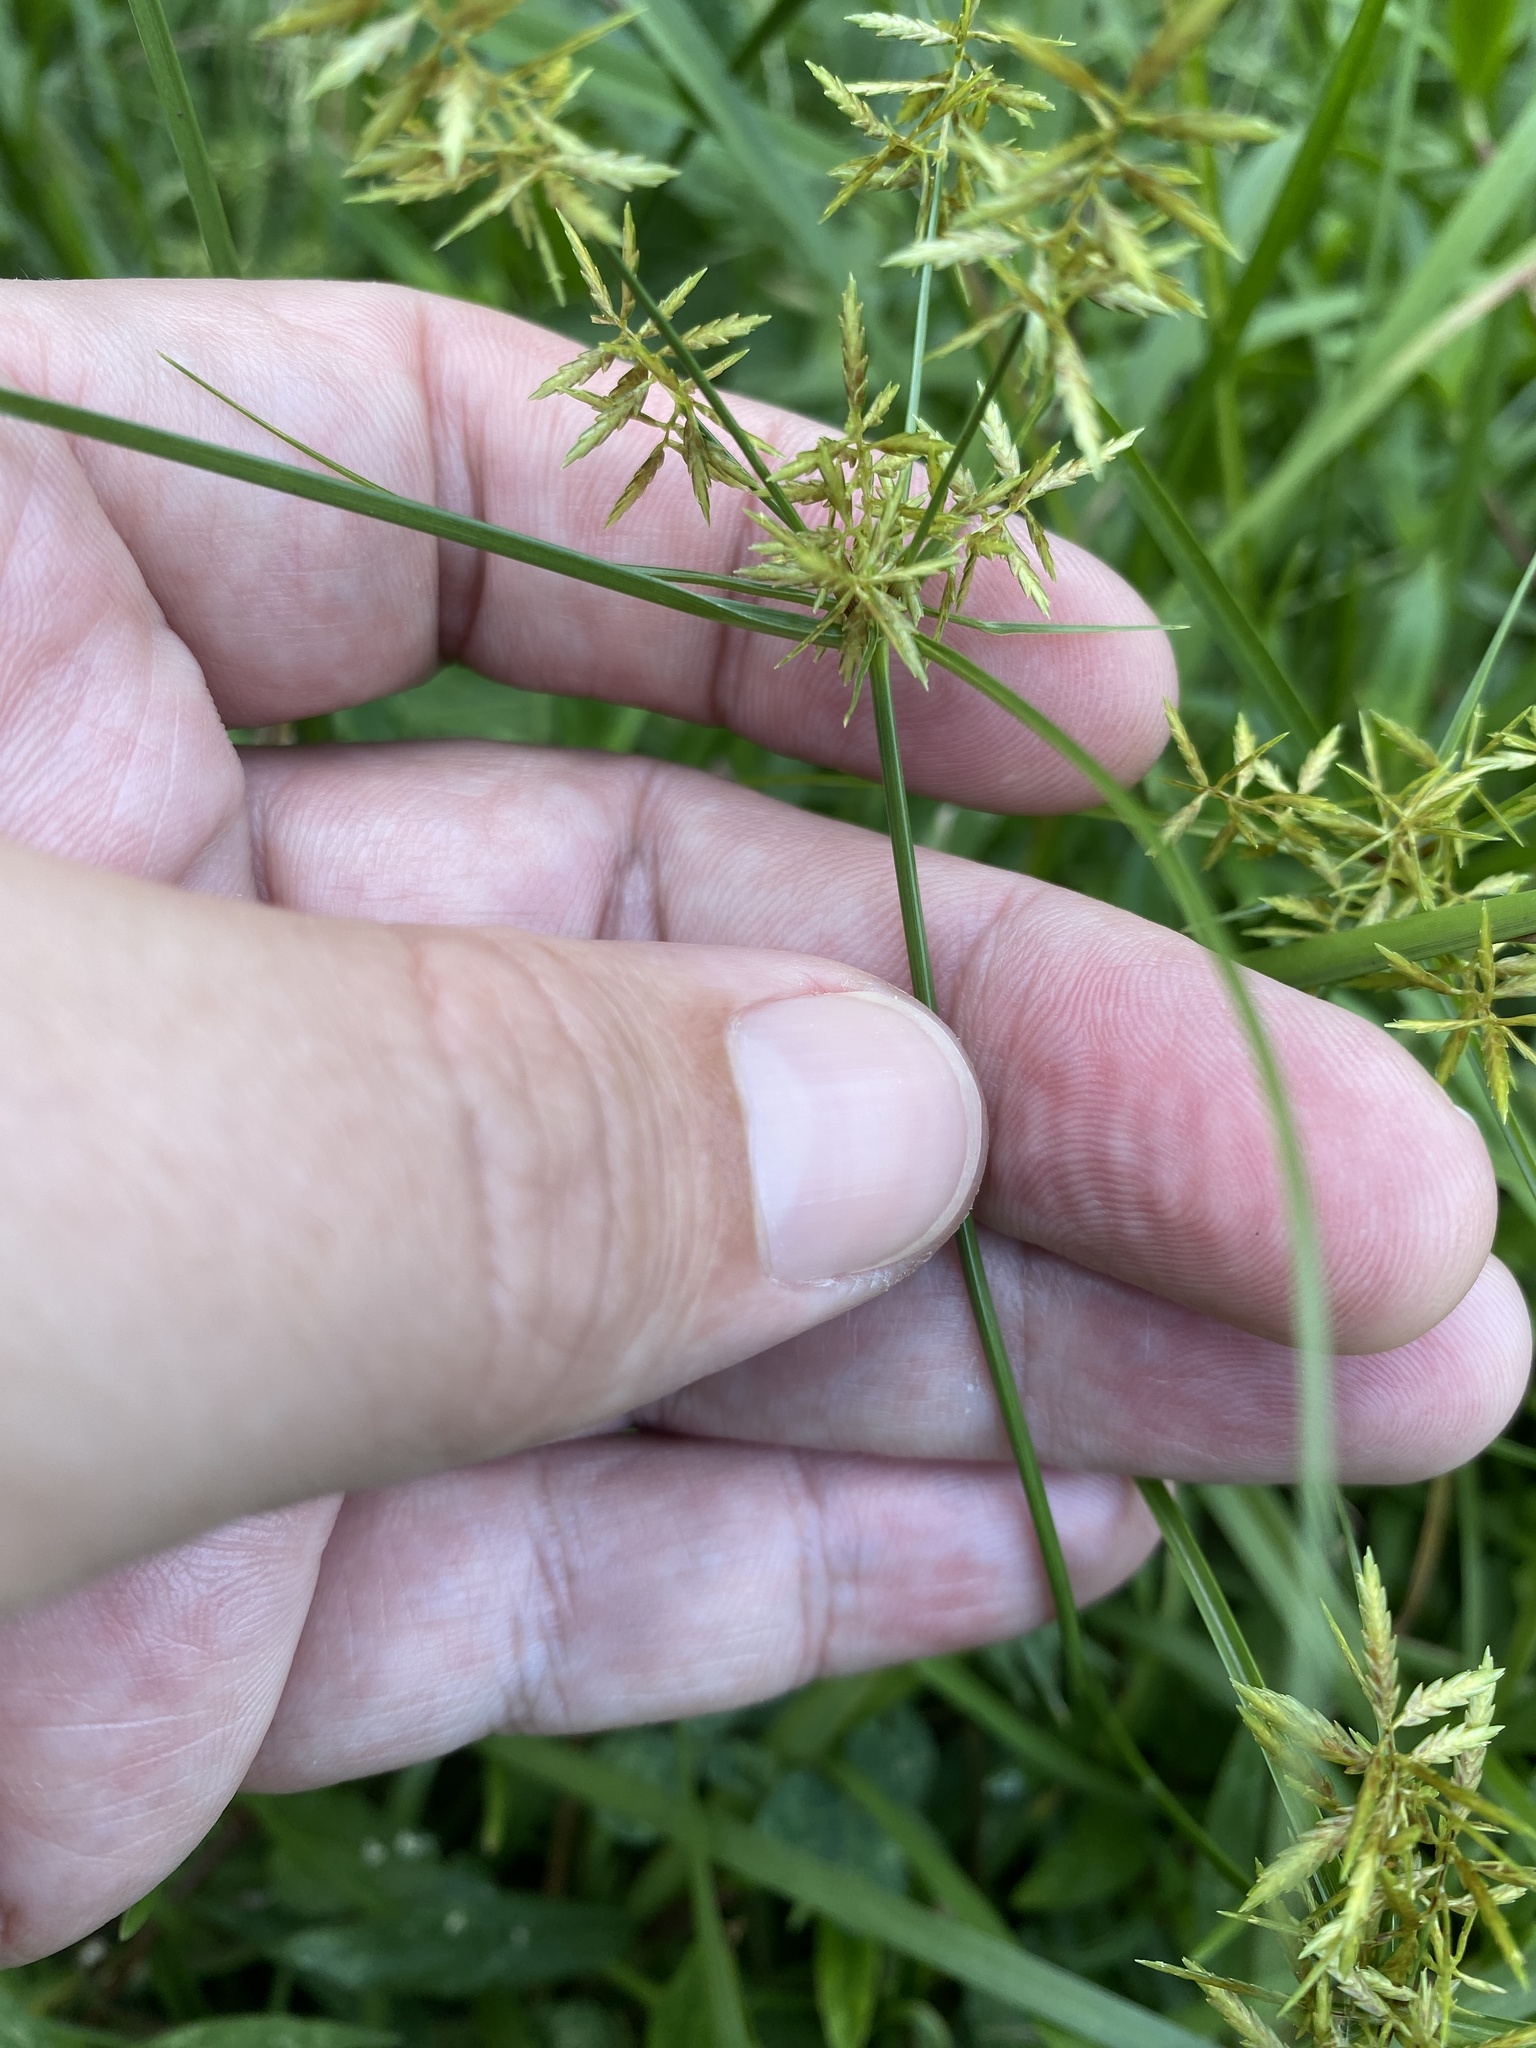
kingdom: Plantae
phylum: Tracheophyta
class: Liliopsida
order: Poales
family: Cyperaceae
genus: Cyperus
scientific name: Cyperus polystachyos
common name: Bunchy flat sedge
